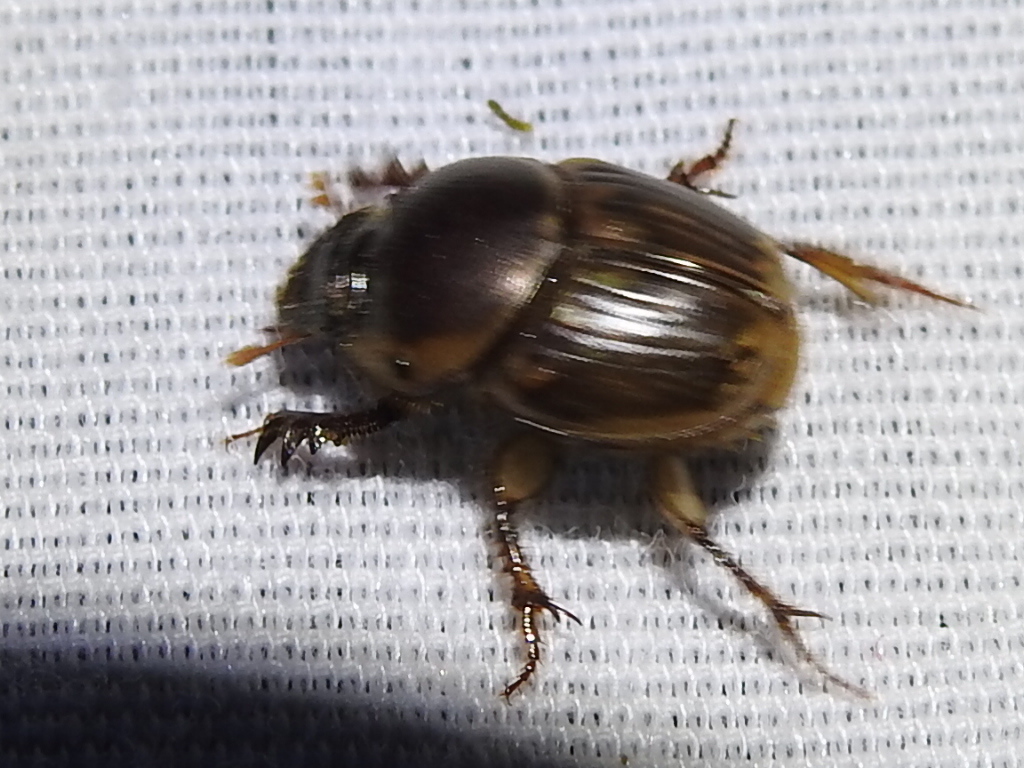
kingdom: Animalia
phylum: Arthropoda
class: Insecta
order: Coleoptera
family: Scarabaeidae
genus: Digitonthophagus
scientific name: Digitonthophagus gazella
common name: Brown dung beetle
